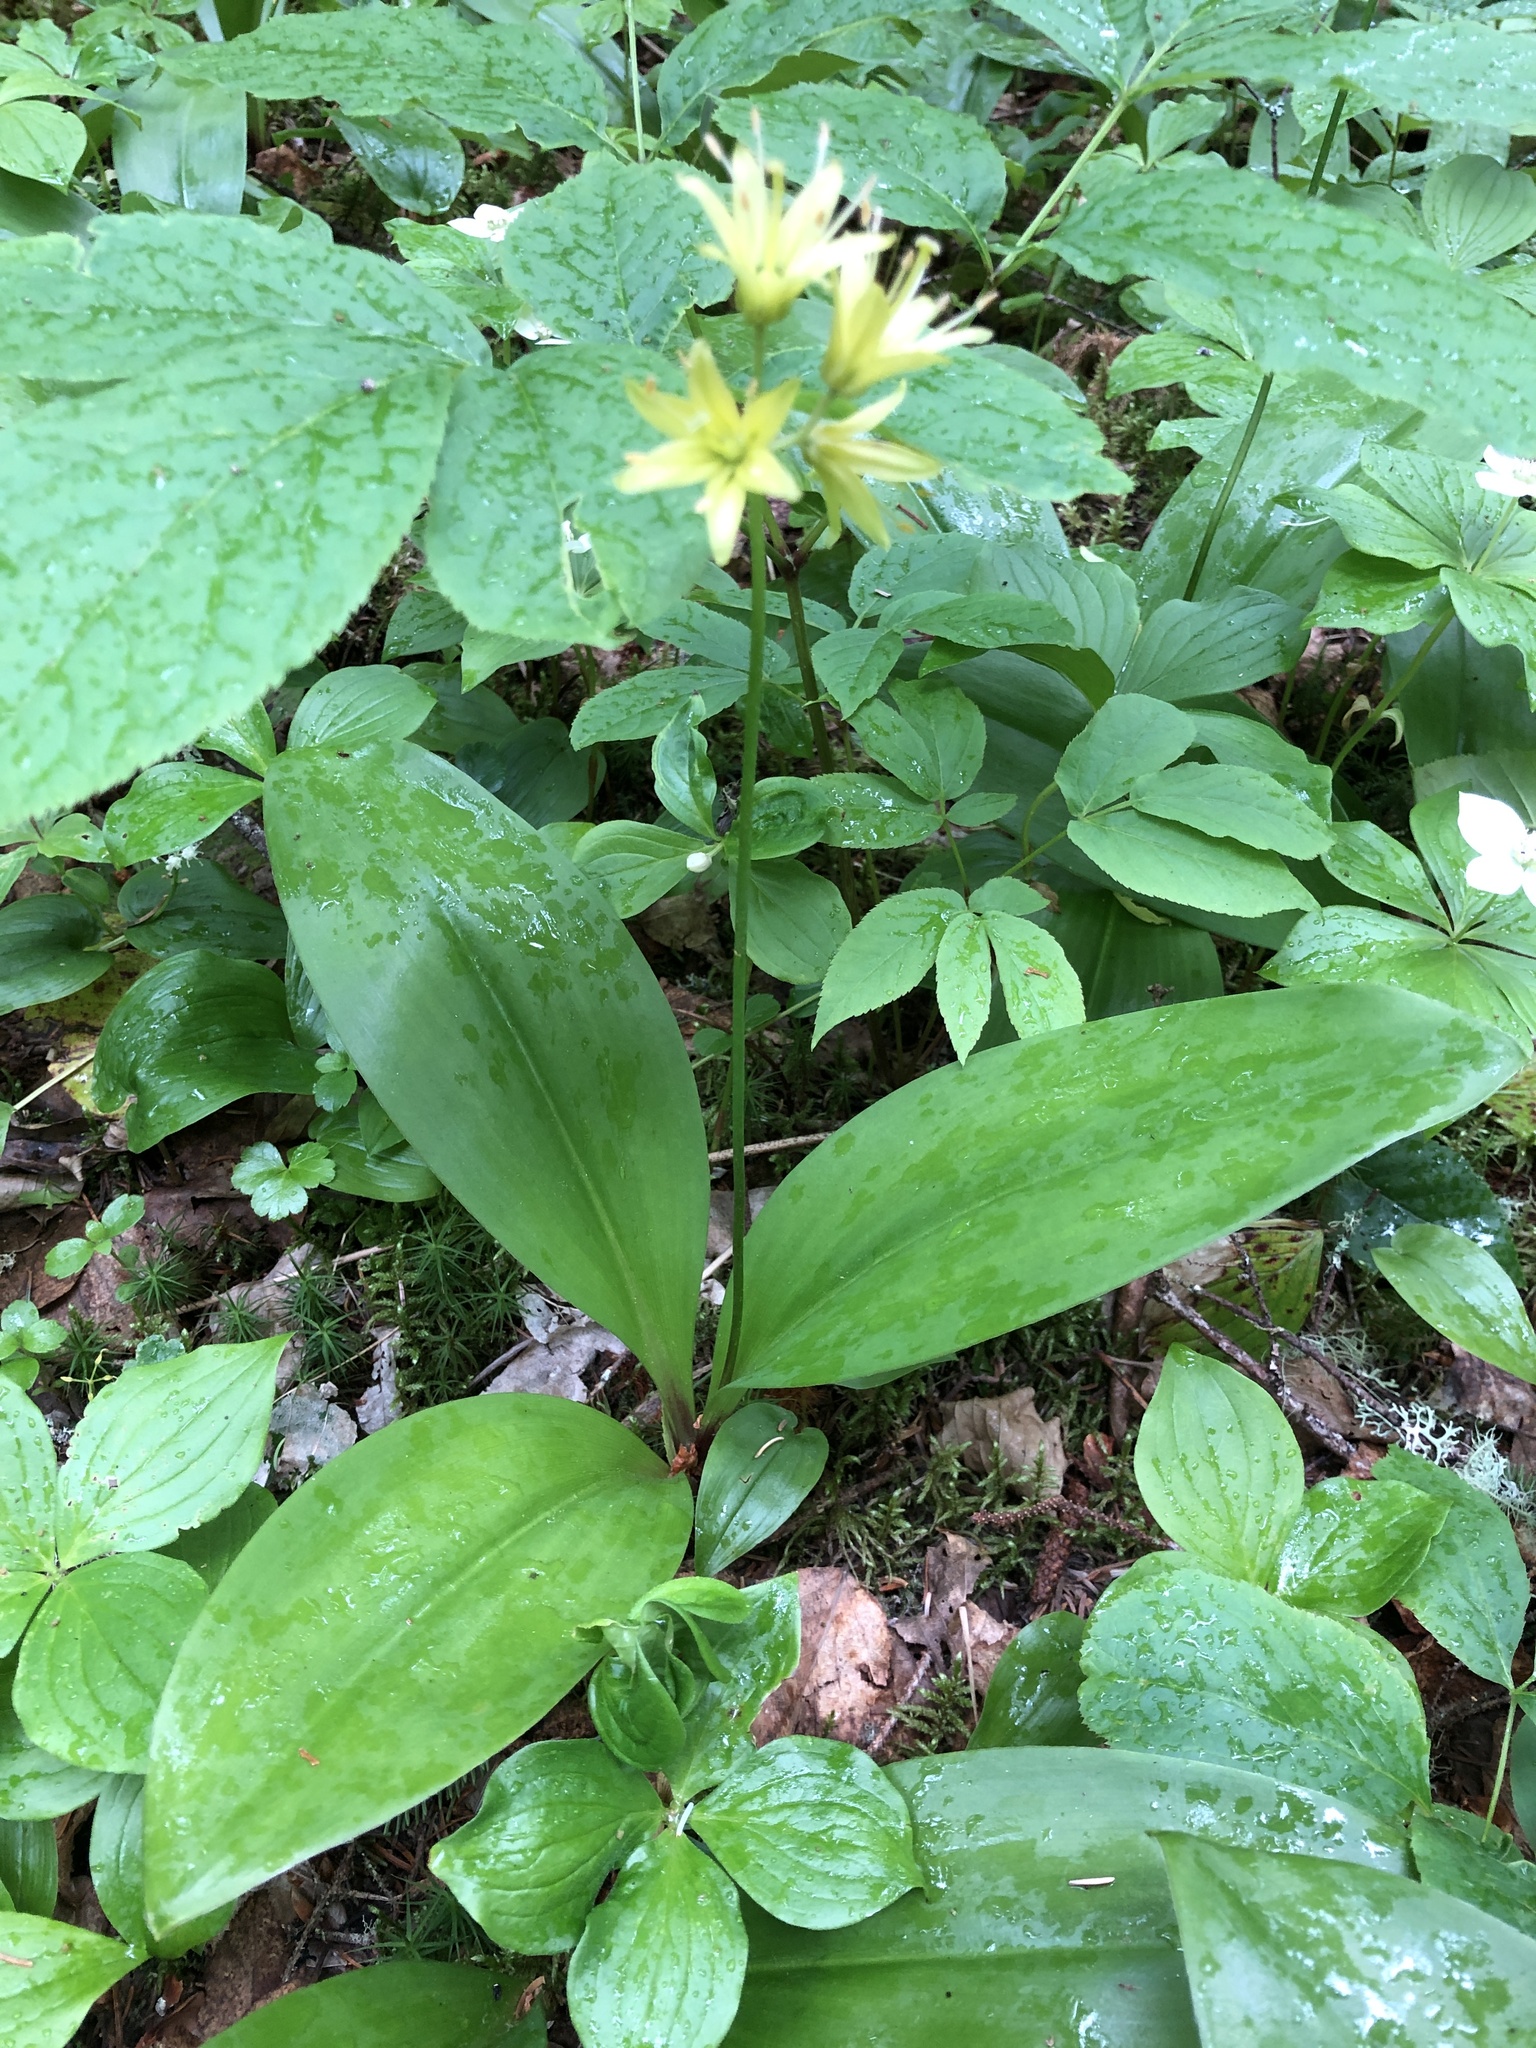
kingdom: Plantae
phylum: Tracheophyta
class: Liliopsida
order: Liliales
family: Liliaceae
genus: Clintonia
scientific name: Clintonia borealis
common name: Yellow clintonia
